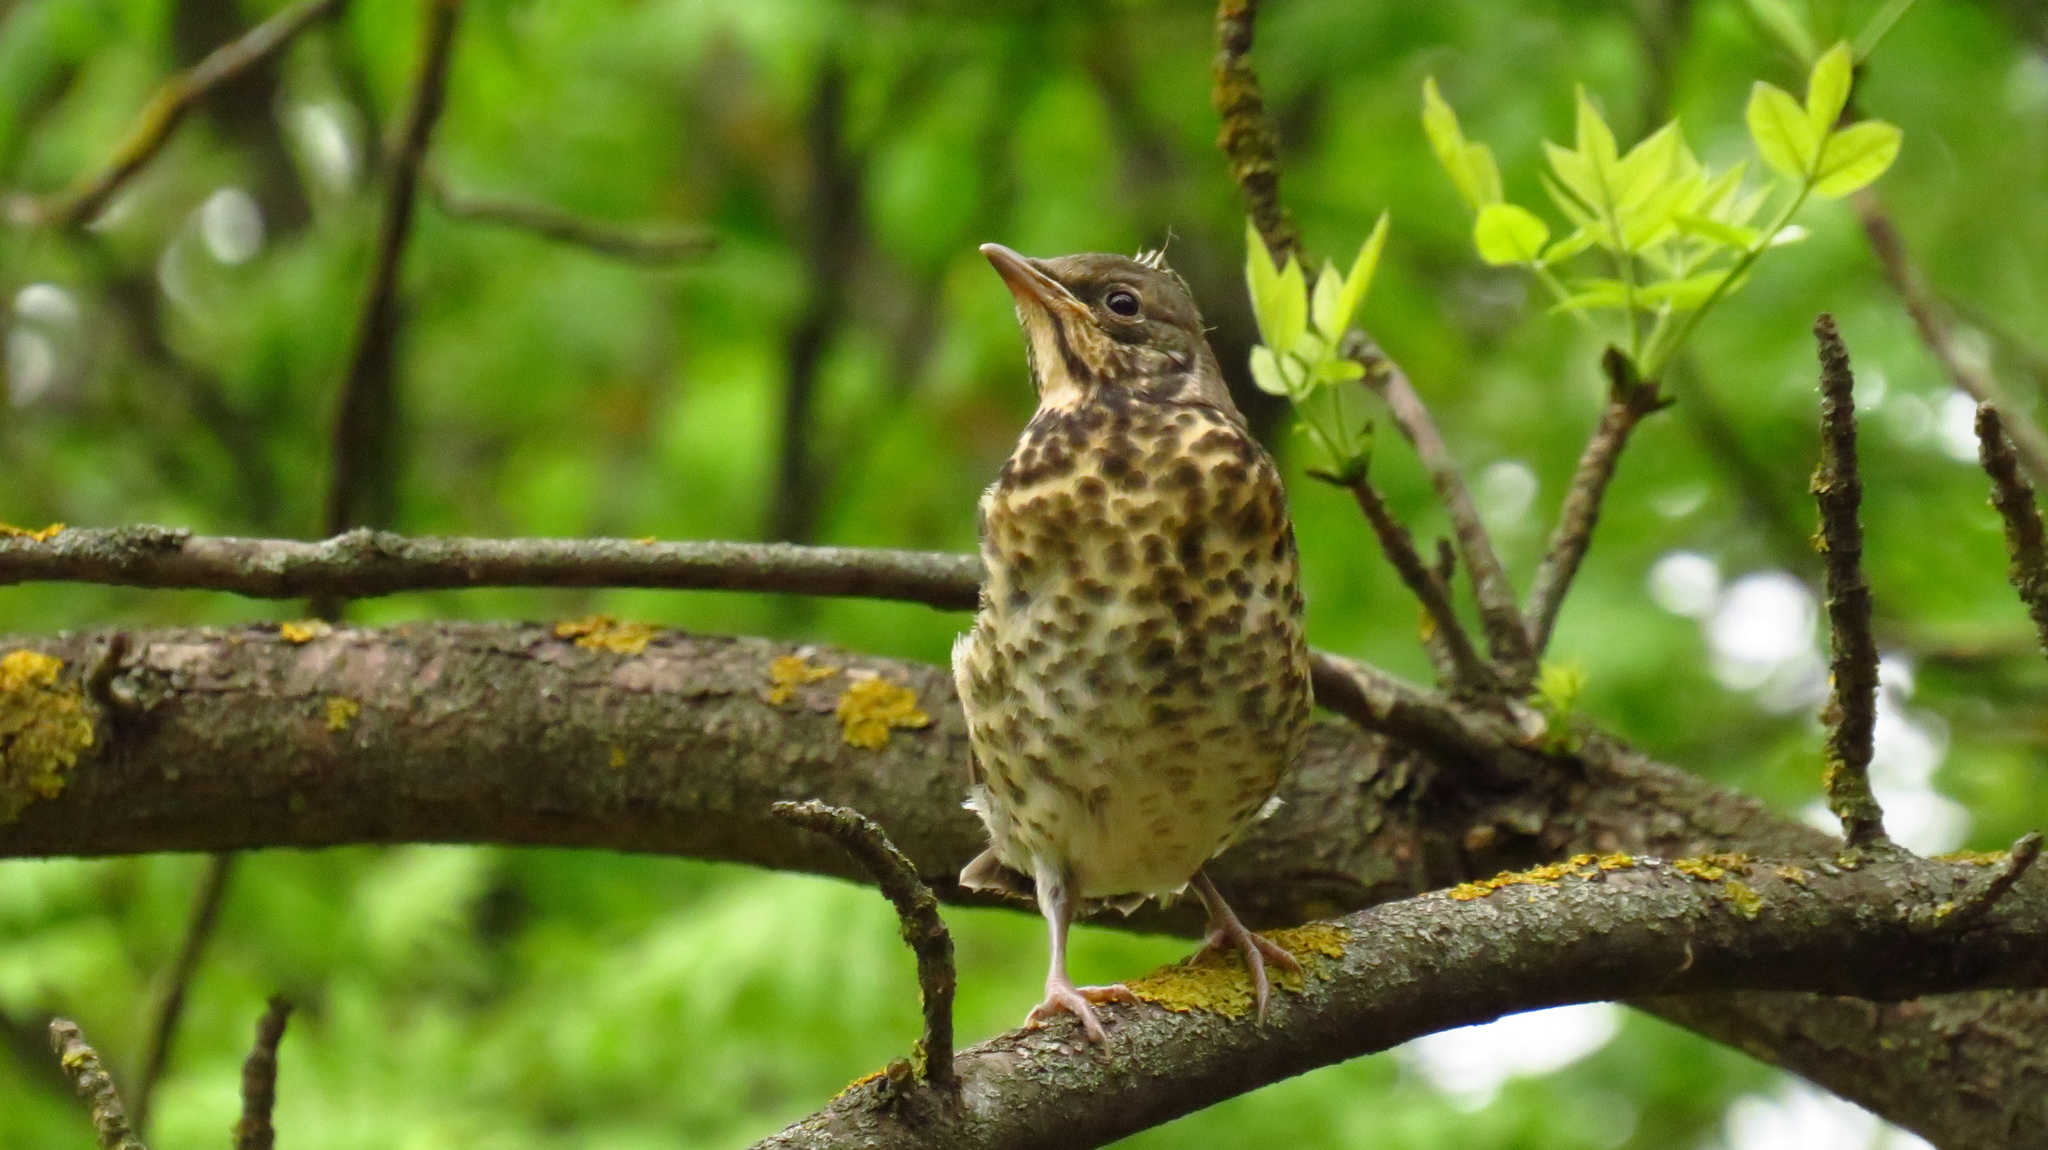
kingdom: Animalia
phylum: Chordata
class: Aves
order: Passeriformes
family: Turdidae
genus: Turdus
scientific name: Turdus pilaris
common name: Fieldfare
